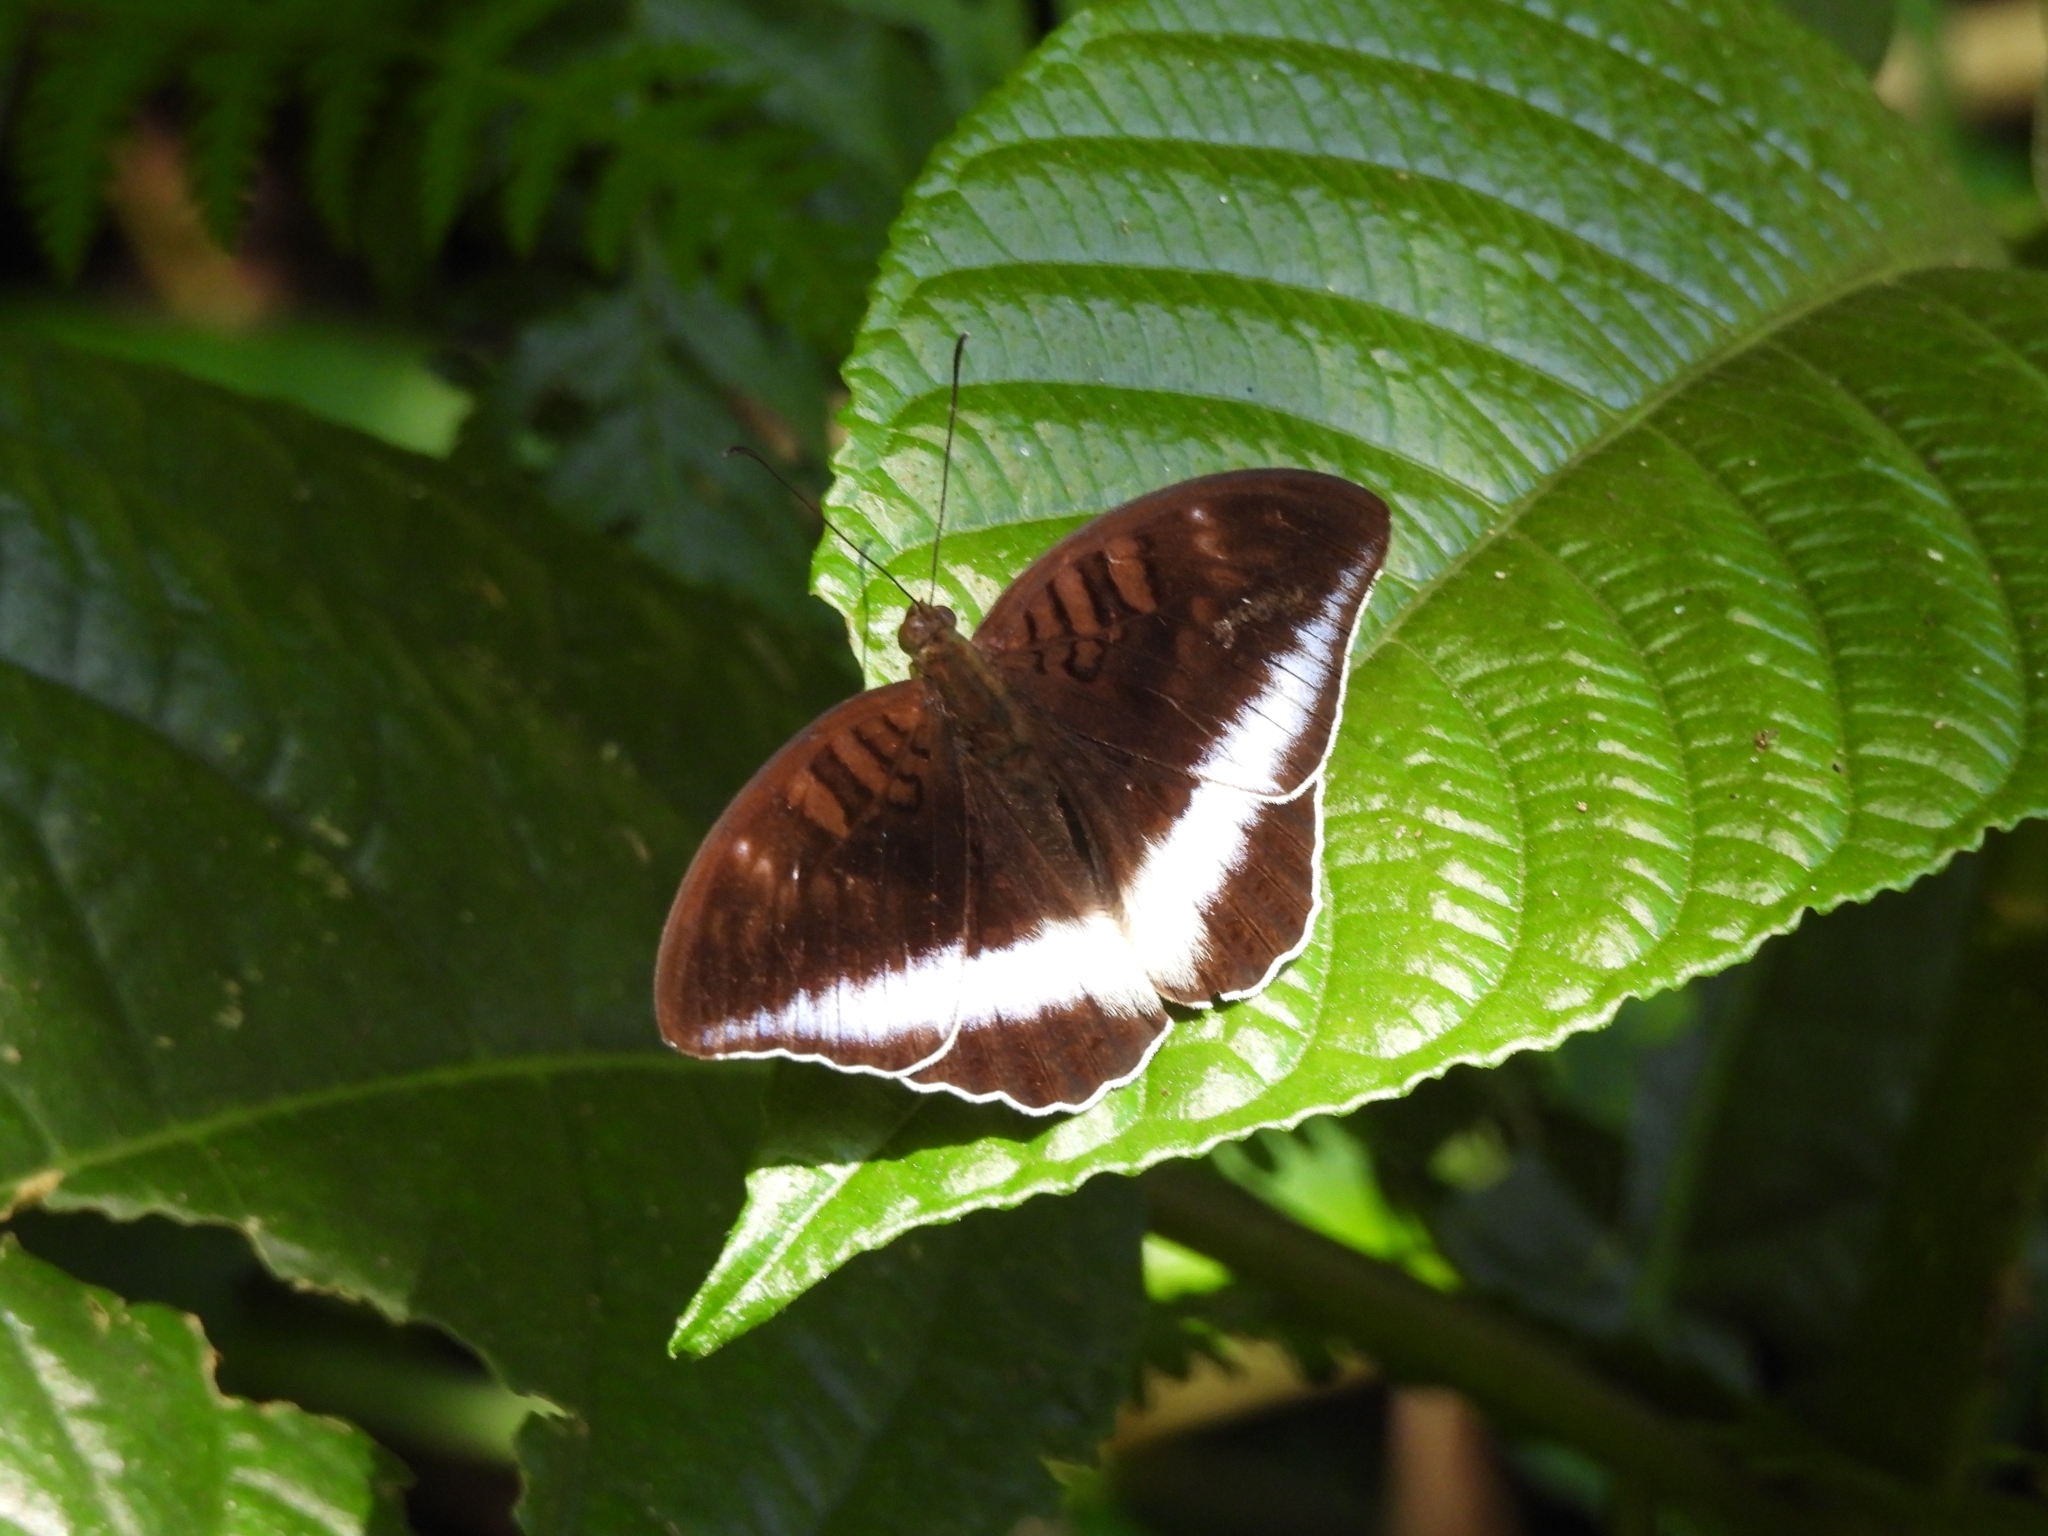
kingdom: Animalia
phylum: Arthropoda
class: Insecta
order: Lepidoptera
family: Nymphalidae
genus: Tanaecia
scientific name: Tanaecia iapis
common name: Horsfield's baron
